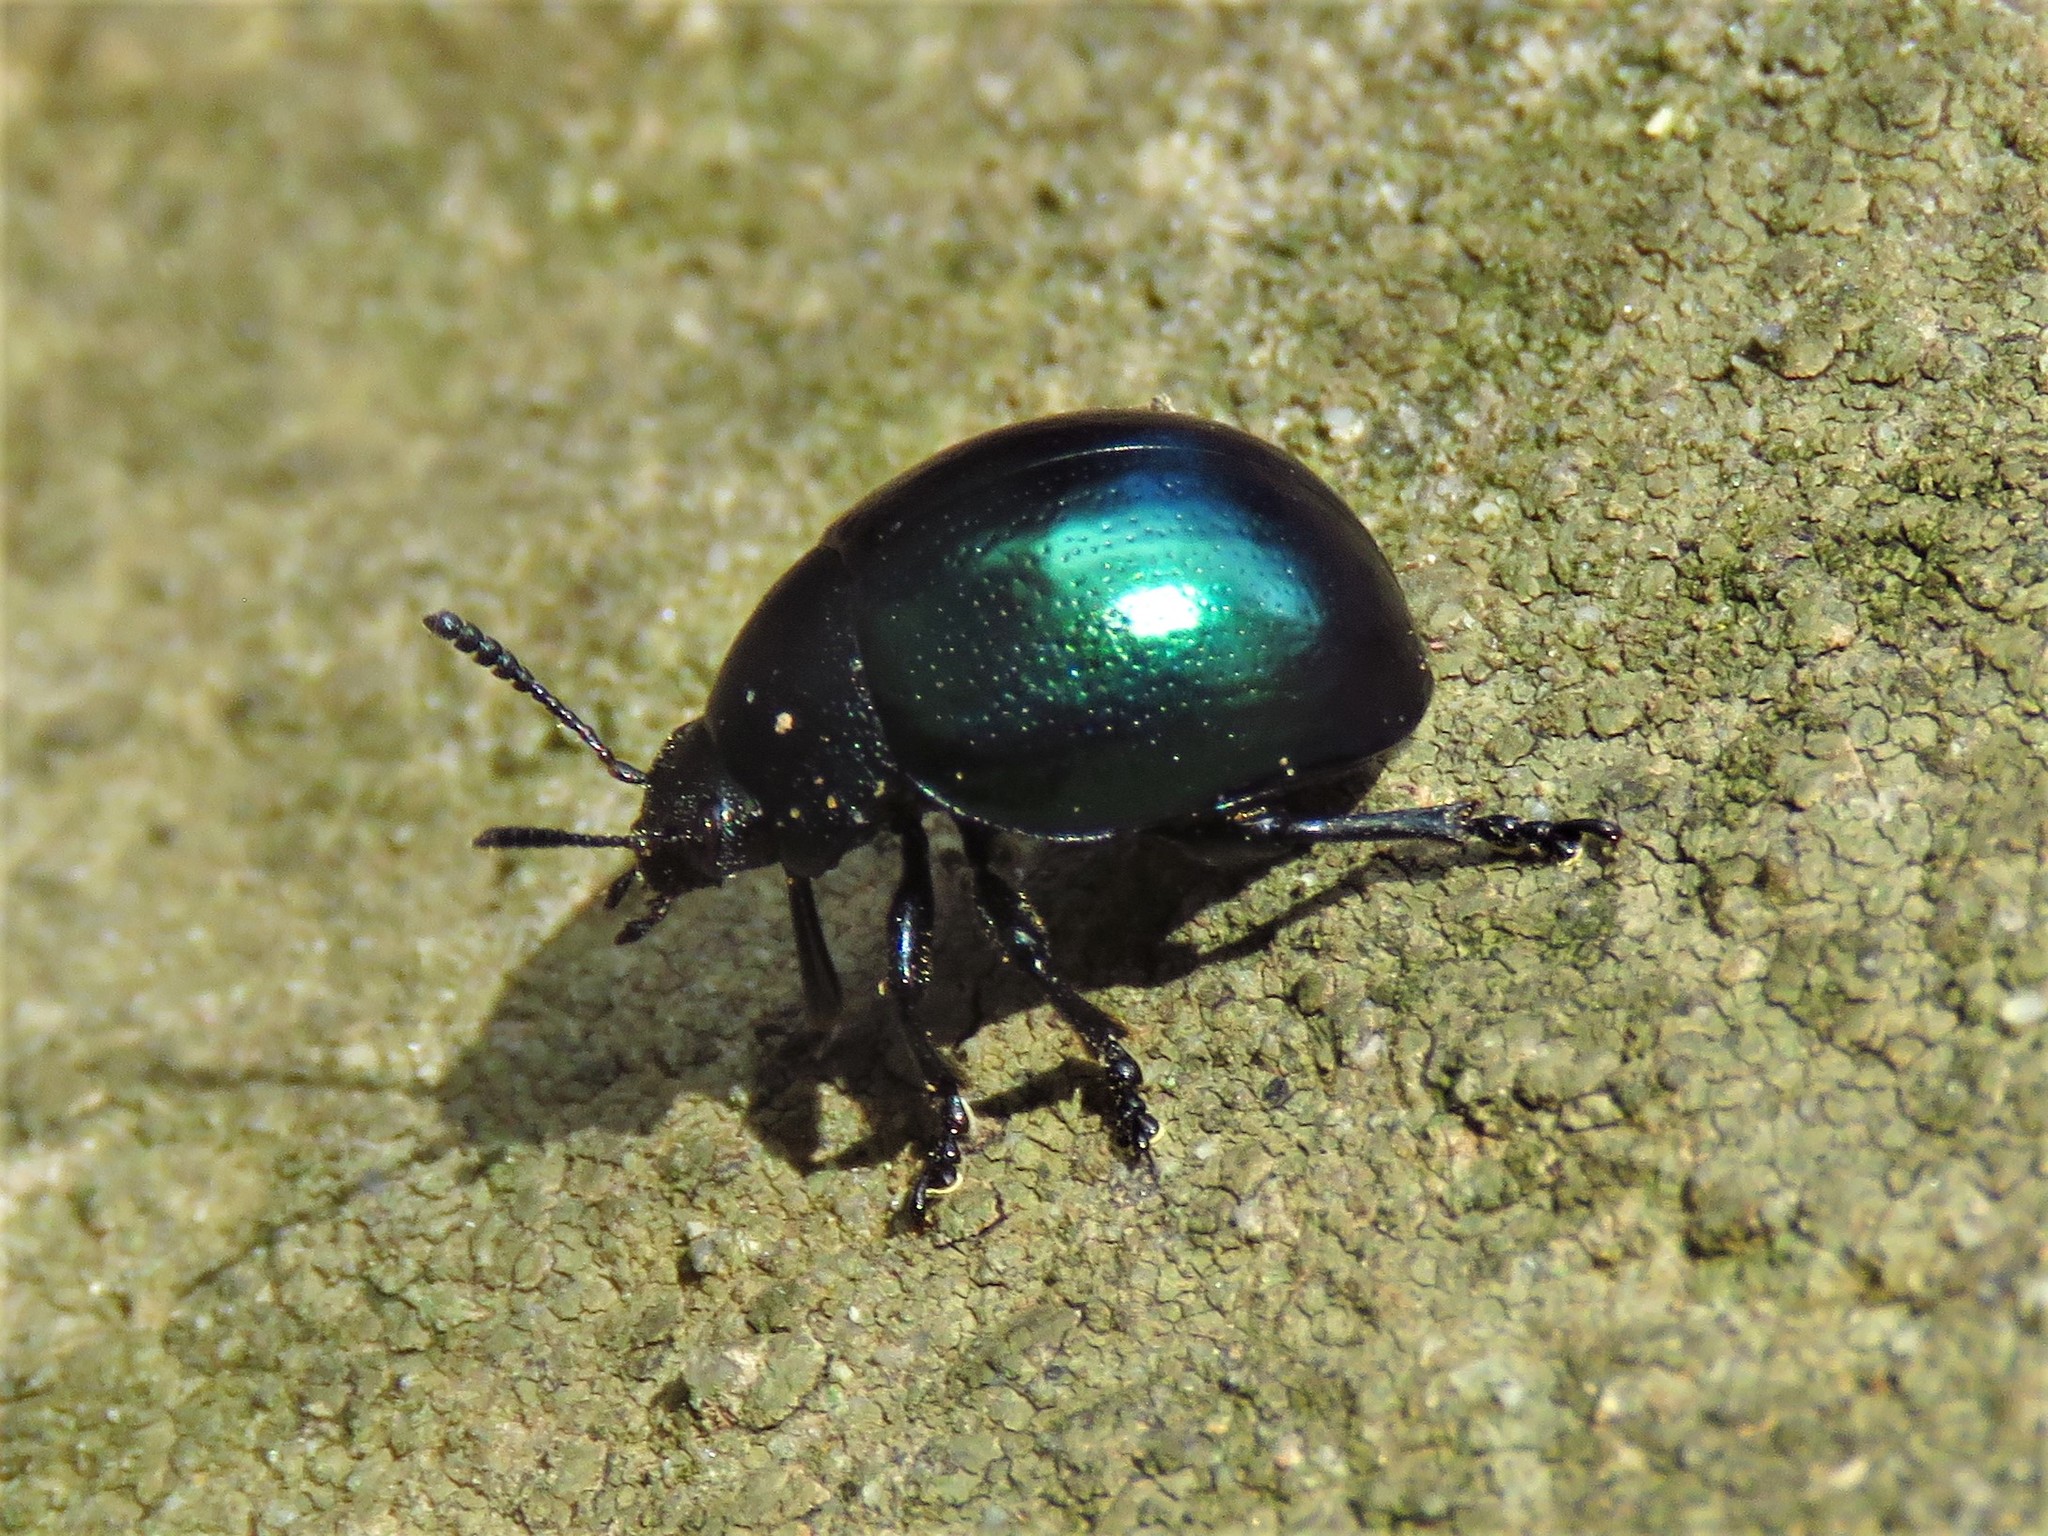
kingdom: Animalia
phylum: Arthropoda
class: Insecta
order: Coleoptera
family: Chrysomelidae
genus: Leptinotarsa
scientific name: Leptinotarsa haldemani
